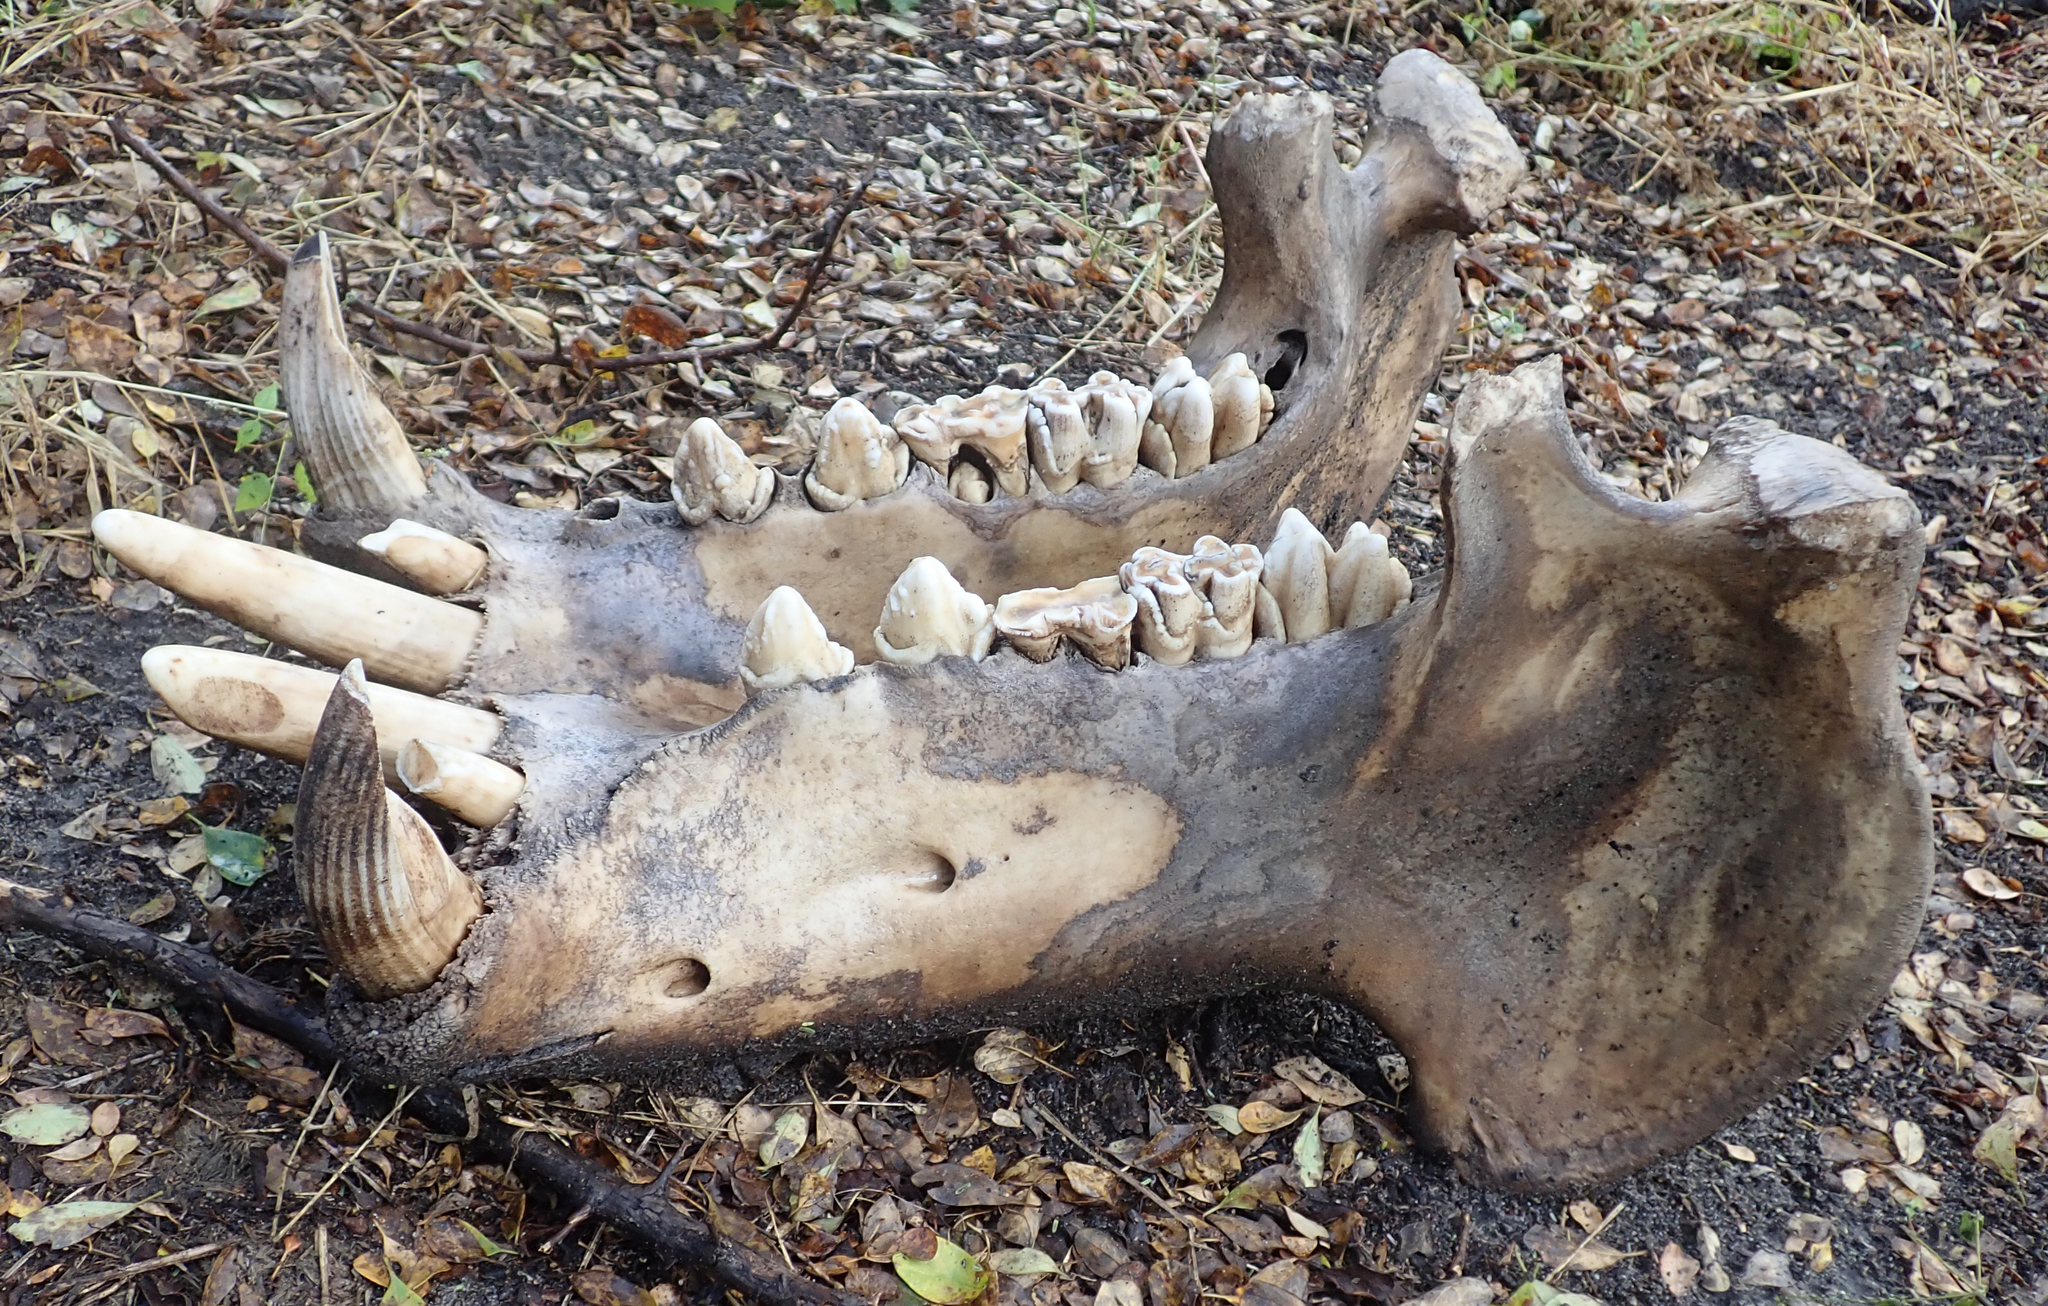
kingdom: Animalia
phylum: Chordata
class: Mammalia
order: Artiodactyla
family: Hippopotamidae
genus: Hippopotamus
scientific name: Hippopotamus amphibius
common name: Common hippopotamus
